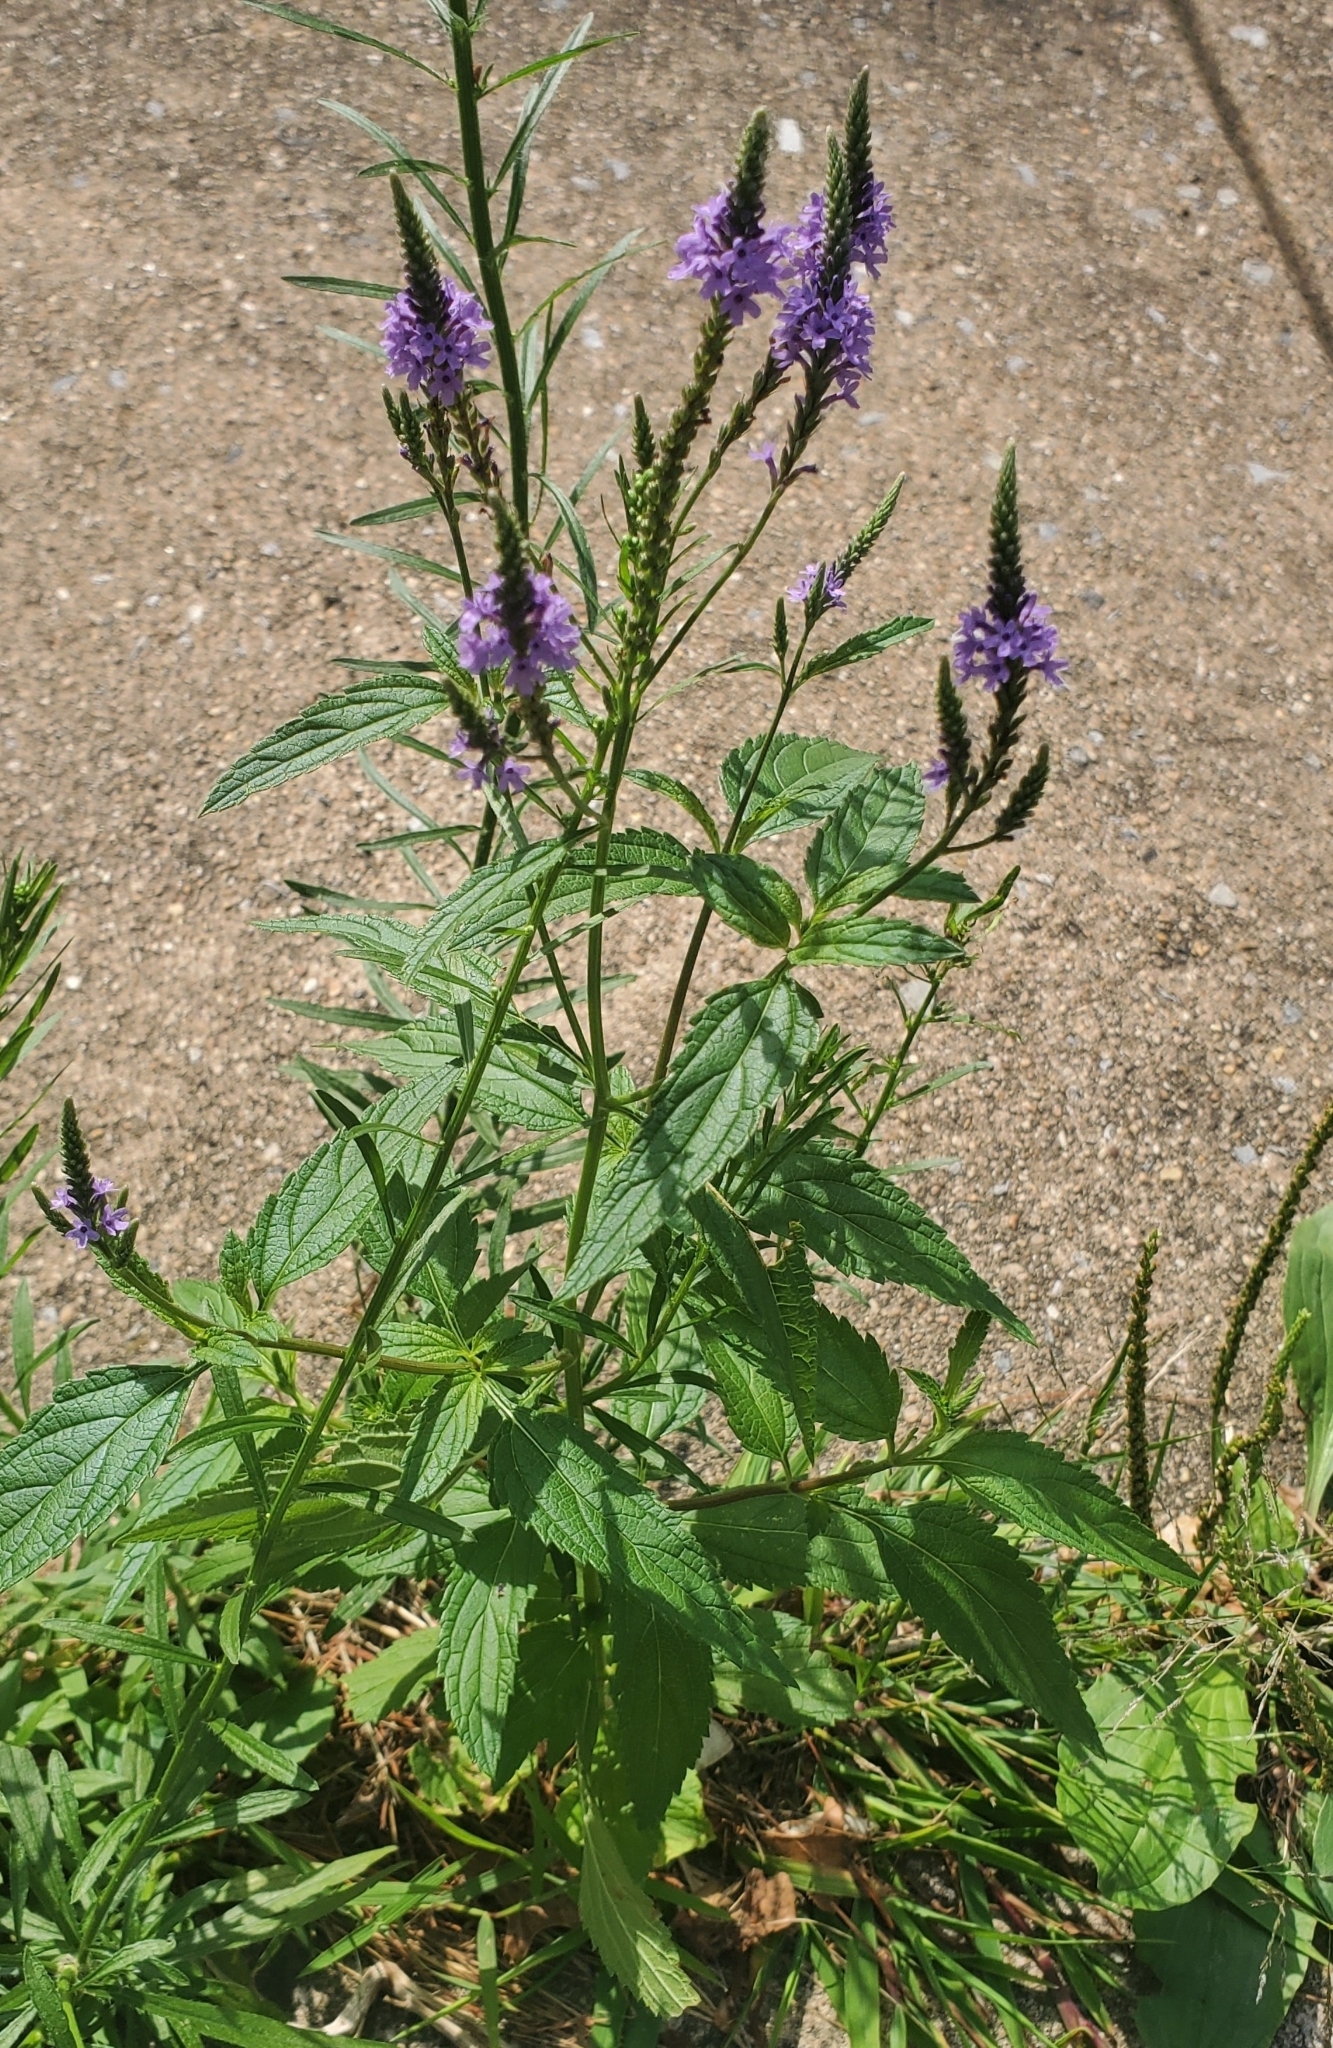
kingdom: Plantae
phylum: Tracheophyta
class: Magnoliopsida
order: Lamiales
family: Verbenaceae
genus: Verbena
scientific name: Verbena hastata
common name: American blue vervain
